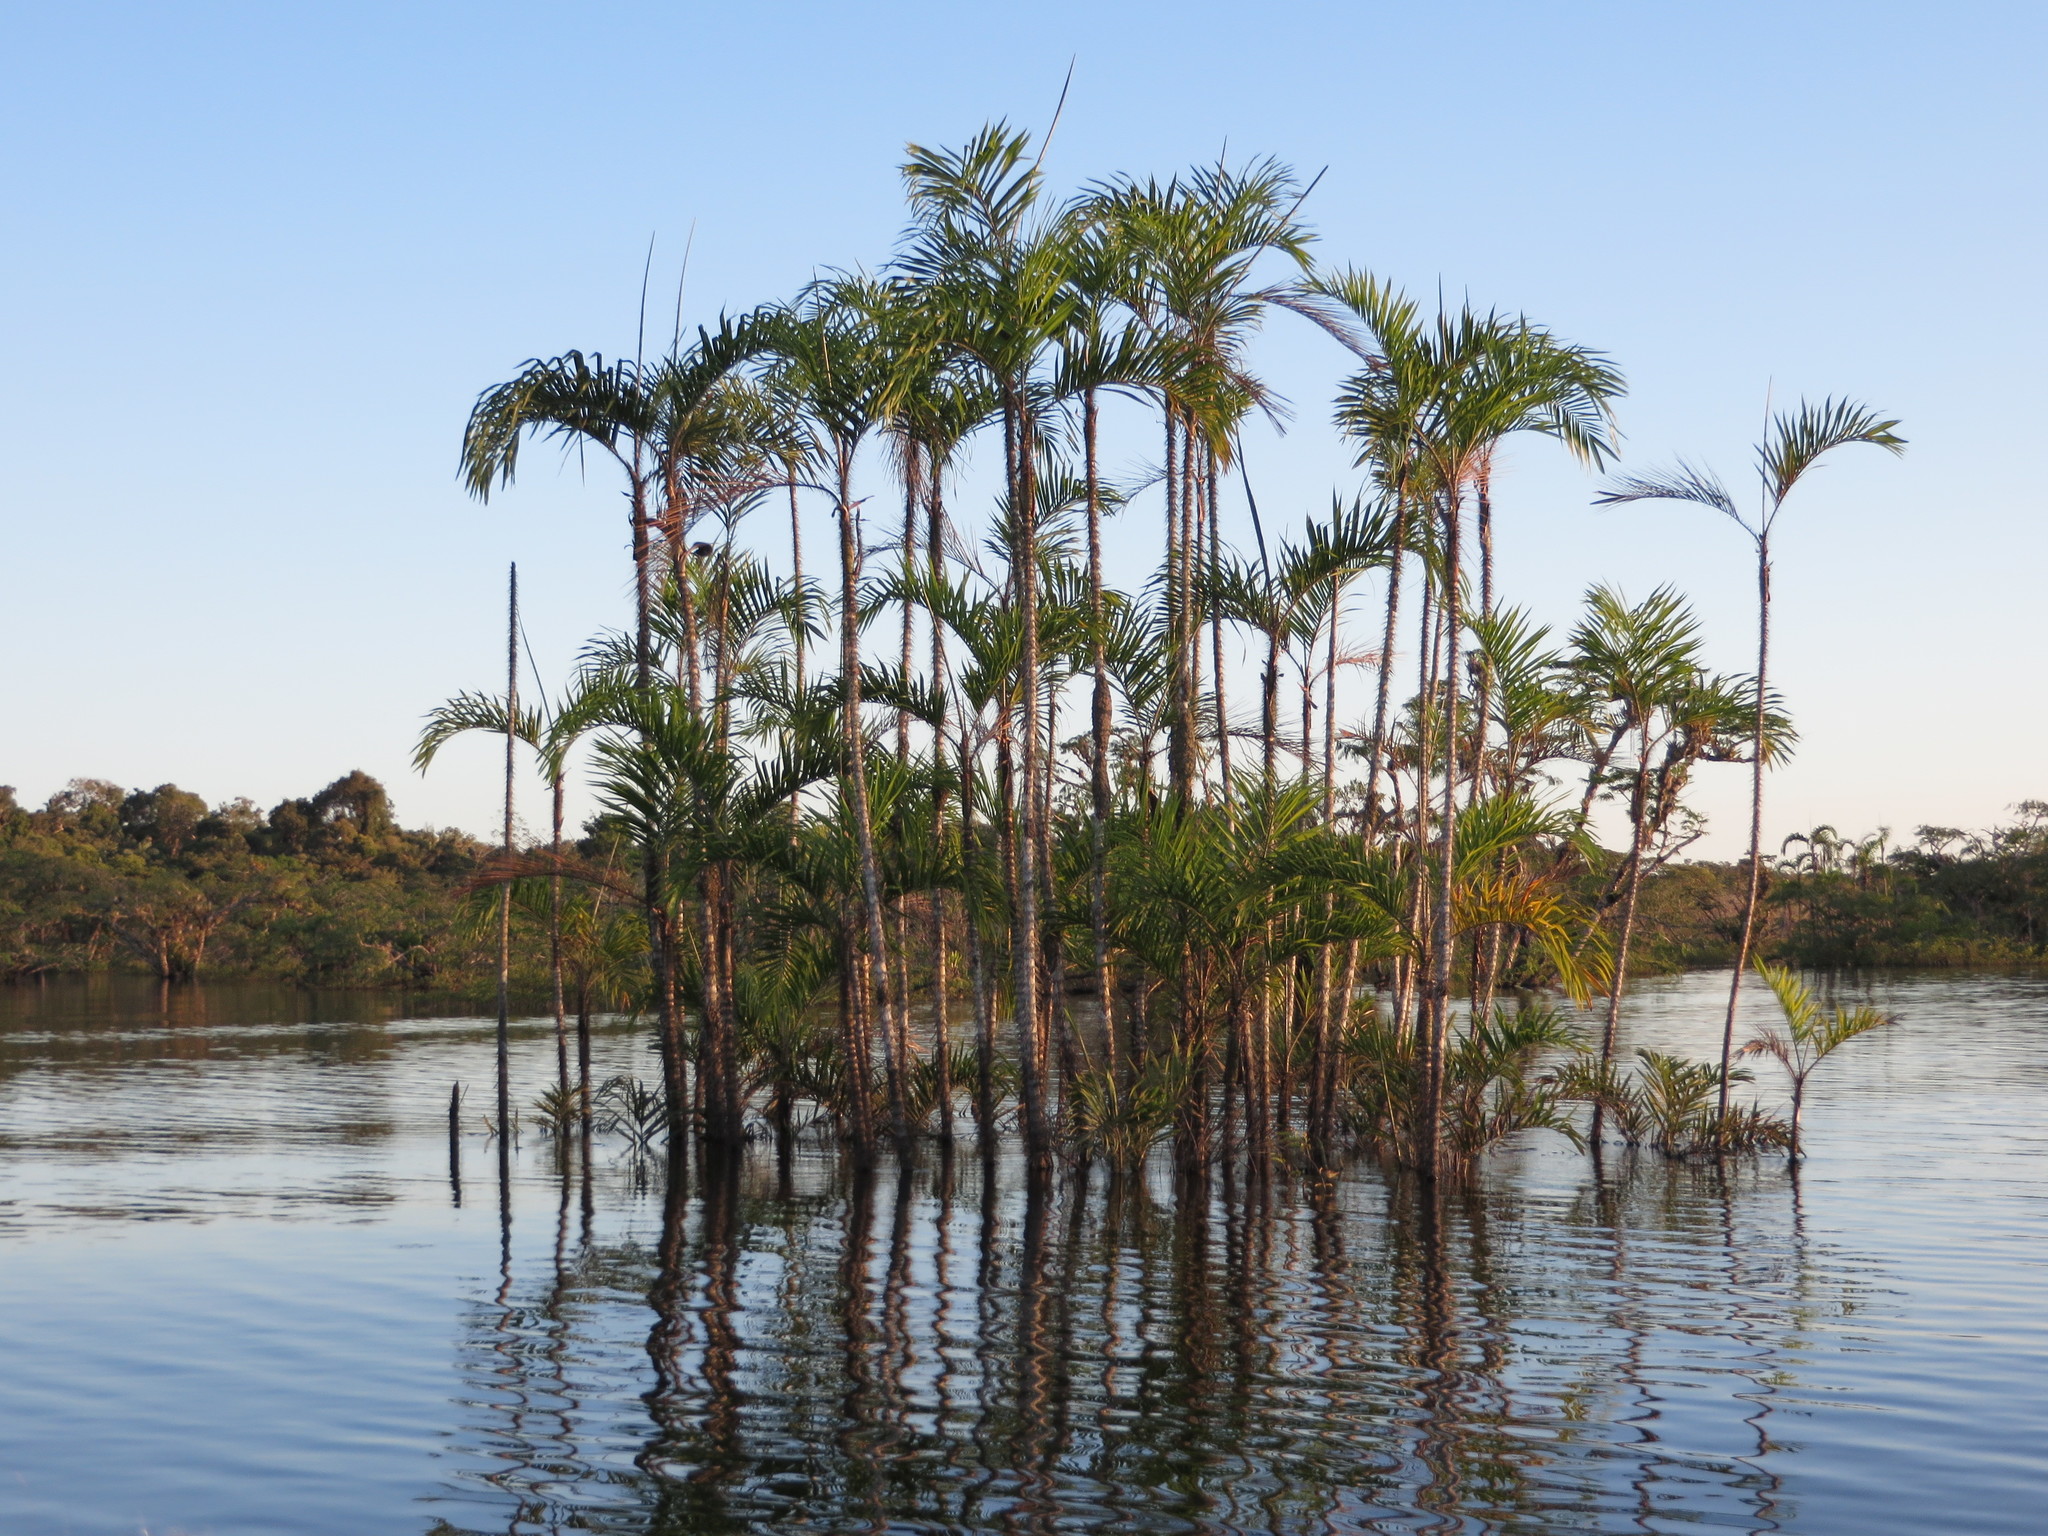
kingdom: Plantae
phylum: Tracheophyta
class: Liliopsida
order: Arecales
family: Arecaceae
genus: Bactris
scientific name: Bactris riparia
